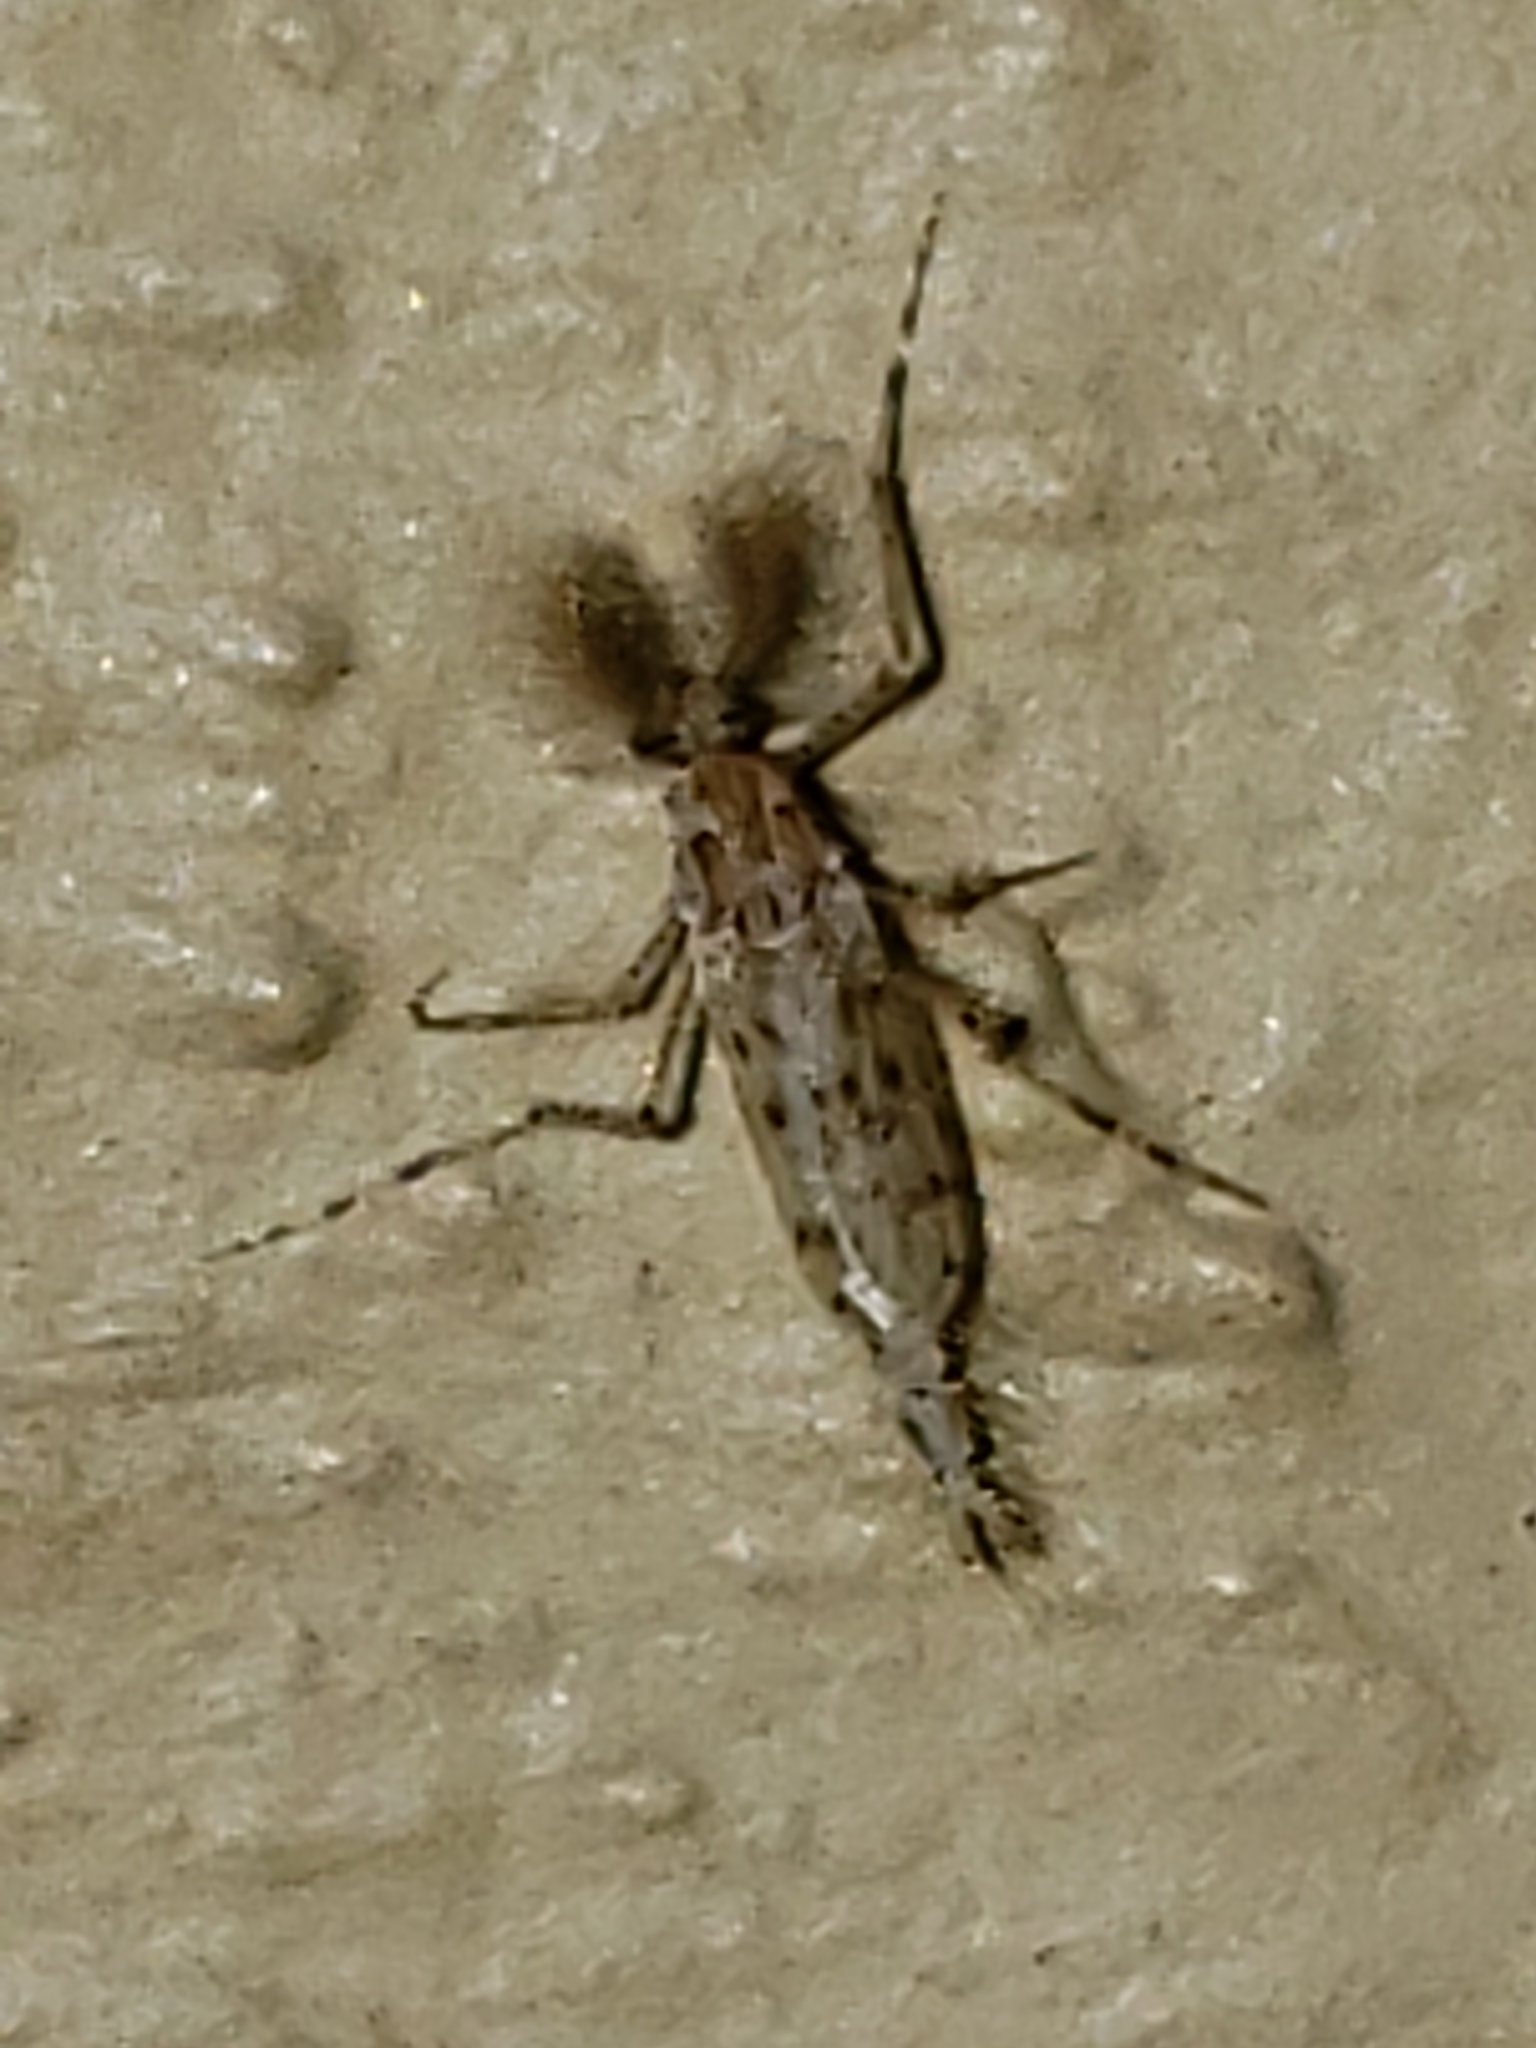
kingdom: Animalia
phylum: Arthropoda
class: Insecta
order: Diptera
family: Chaoboridae
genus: Chaoborus
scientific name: Chaoborus punctipennis
